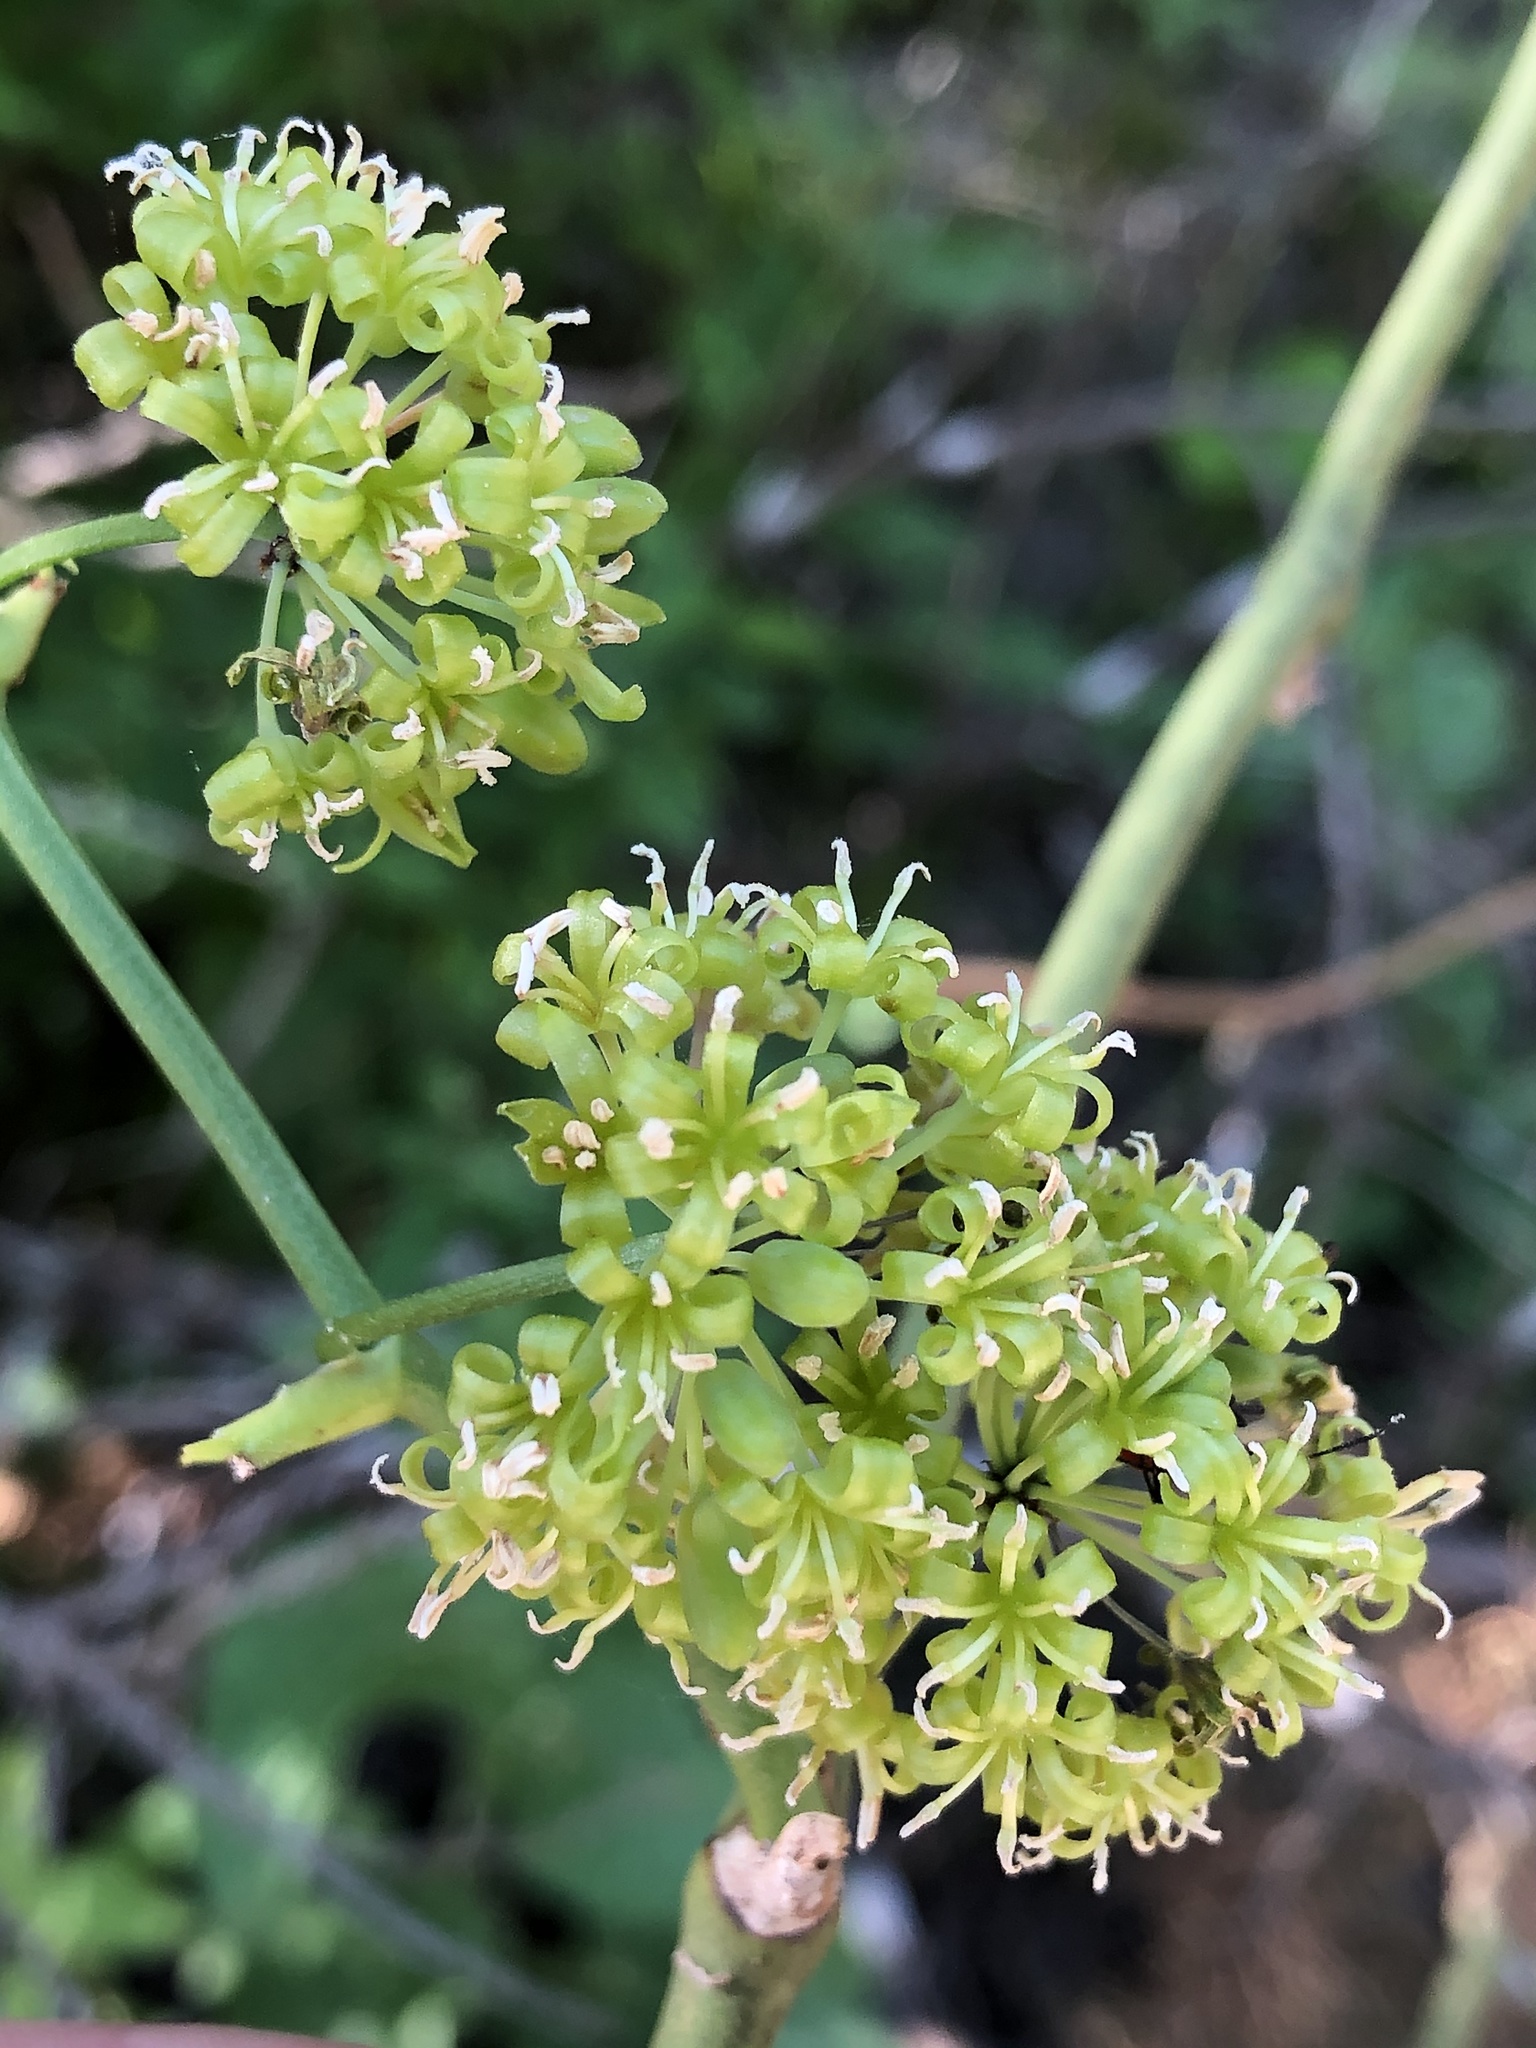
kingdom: Plantae
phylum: Tracheophyta
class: Liliopsida
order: Liliales
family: Smilacaceae
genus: Smilax
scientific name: Smilax bona-nox
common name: Catbrier
